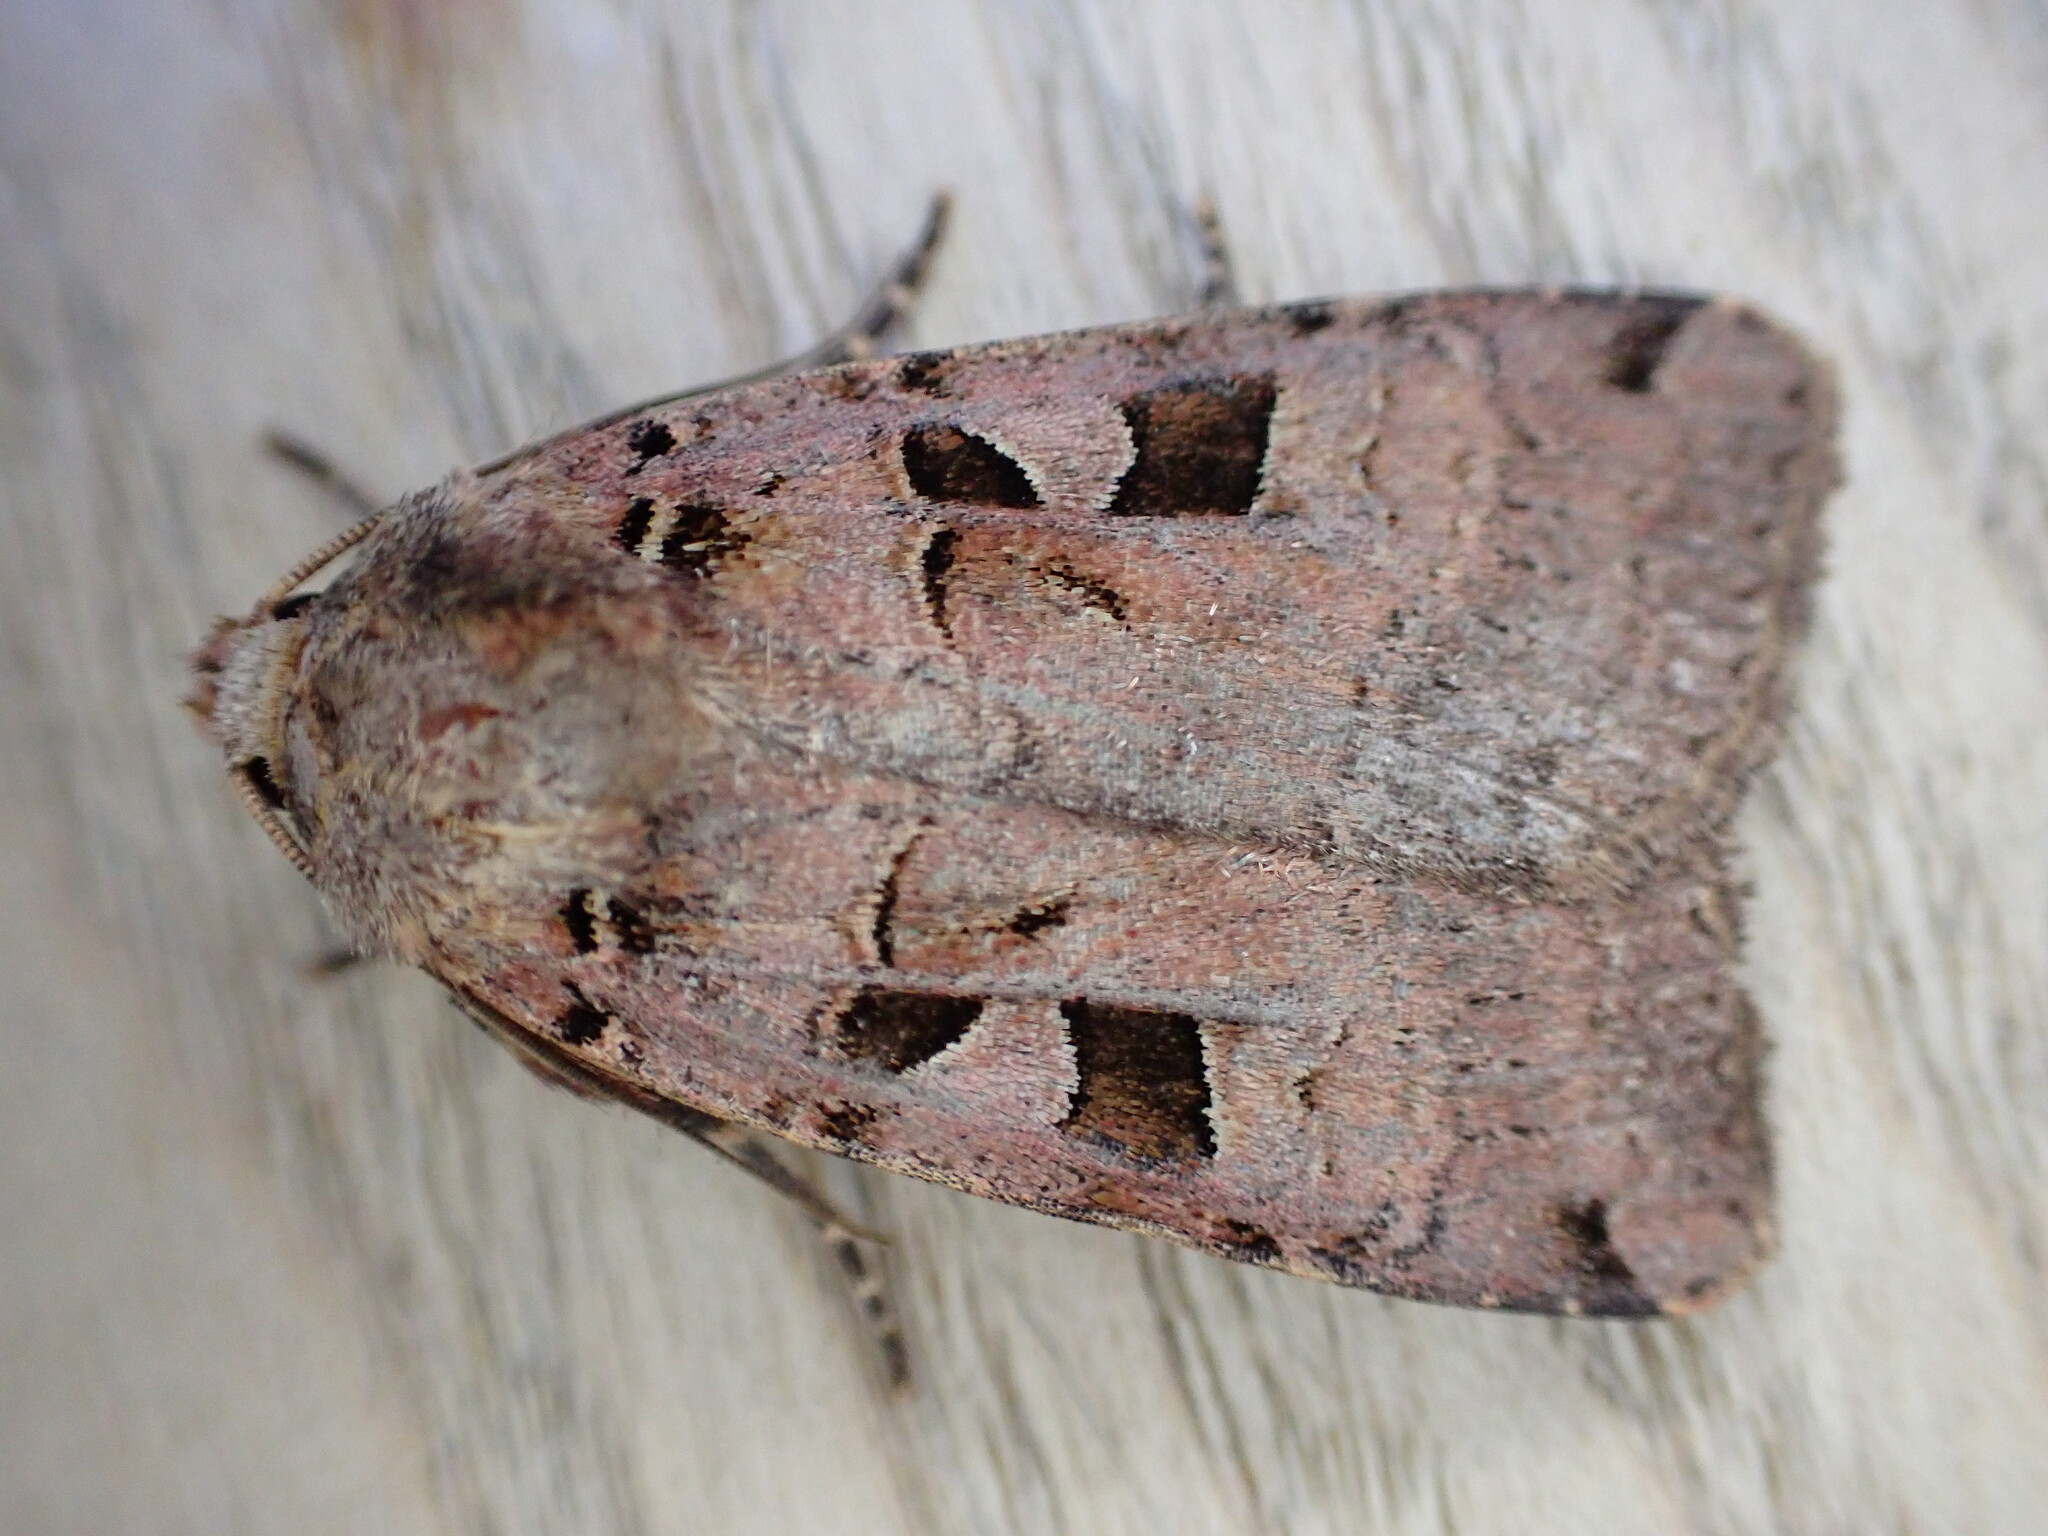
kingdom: Animalia
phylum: Arthropoda
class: Insecta
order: Lepidoptera
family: Noctuidae
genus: Xestia
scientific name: Xestia triangulum
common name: Double square-spot
